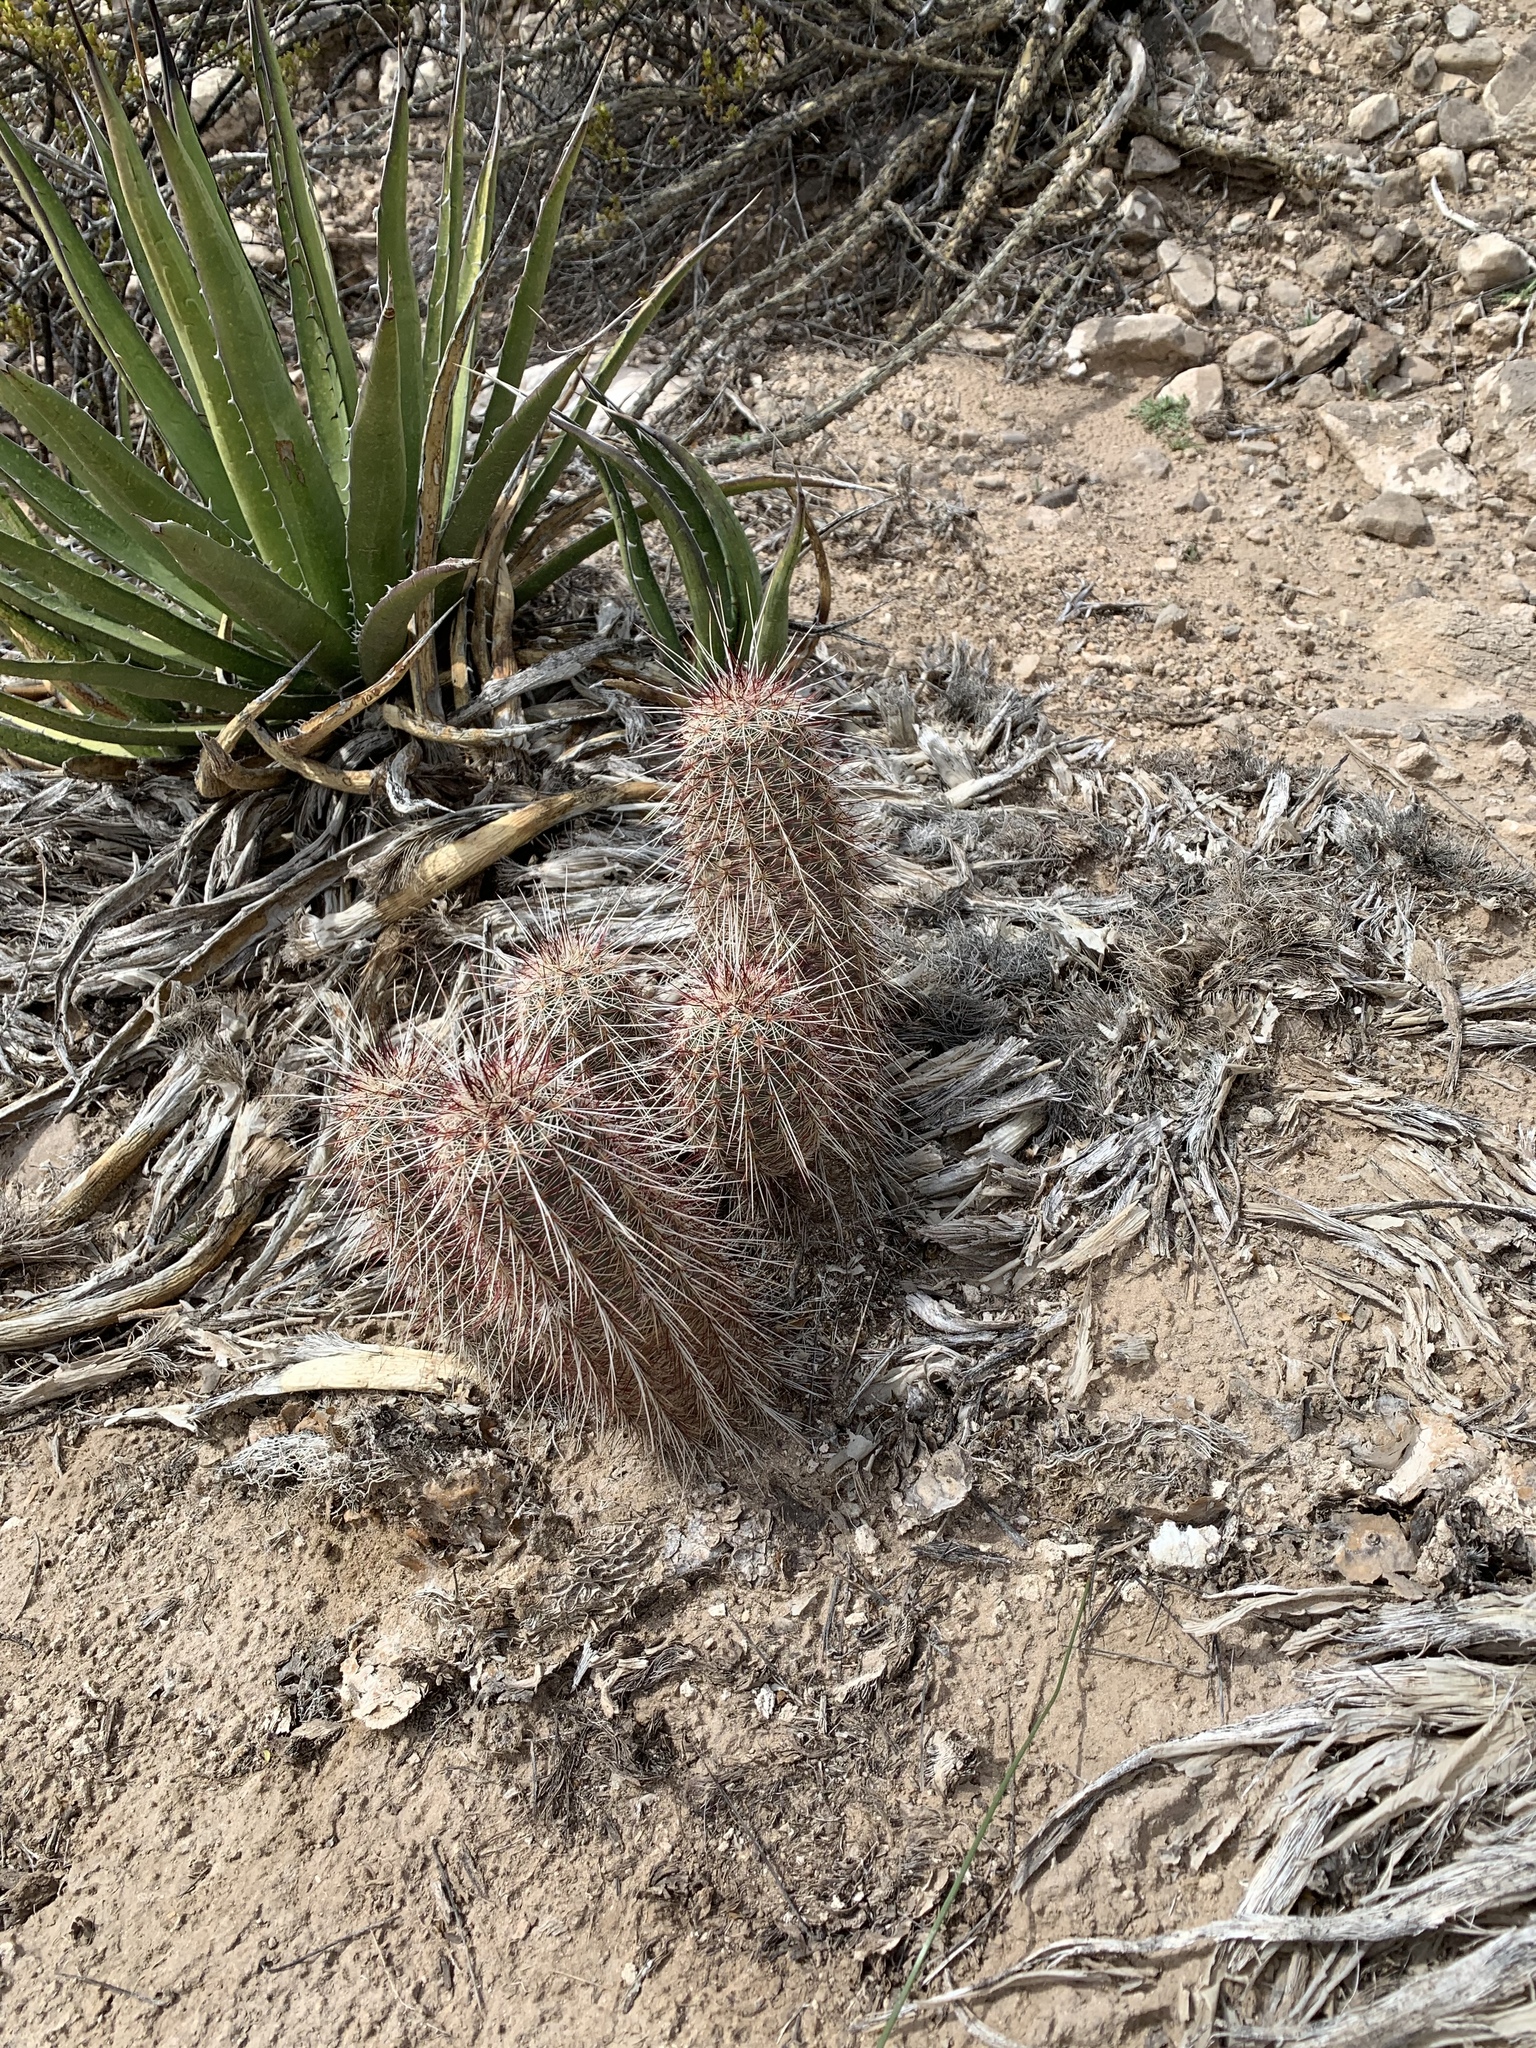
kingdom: Plantae
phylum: Tracheophyta
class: Magnoliopsida
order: Caryophyllales
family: Cactaceae
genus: Echinocereus
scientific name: Echinocereus viridiflorus
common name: Nylon hedgehog cactus
